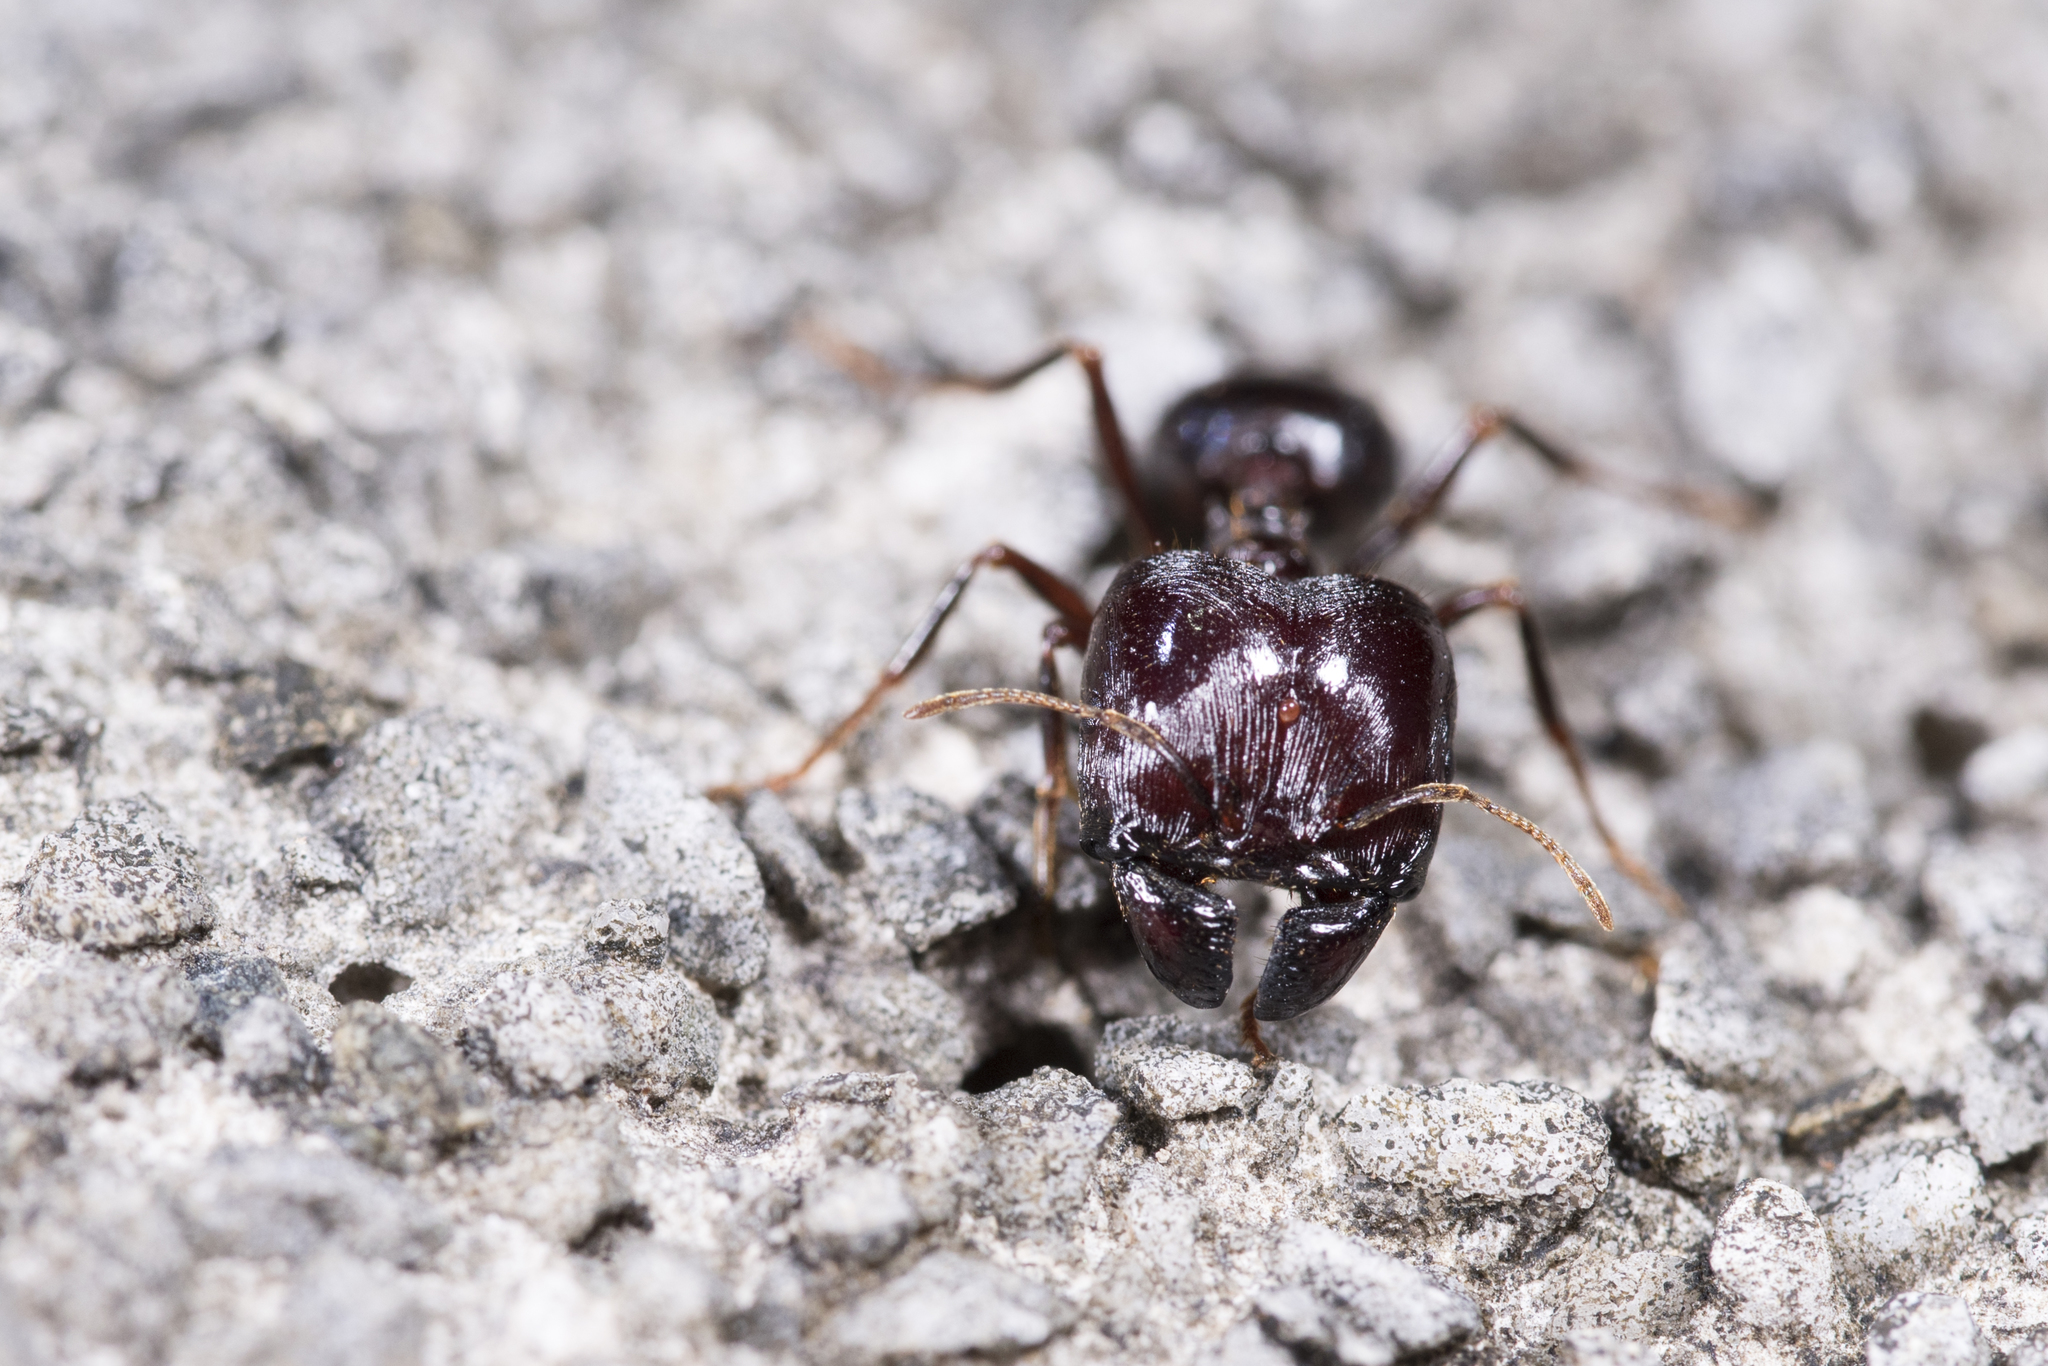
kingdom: Animalia
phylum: Arthropoda
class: Insecta
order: Hymenoptera
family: Formicidae
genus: Pheidologeton
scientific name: Pheidologeton diversus
